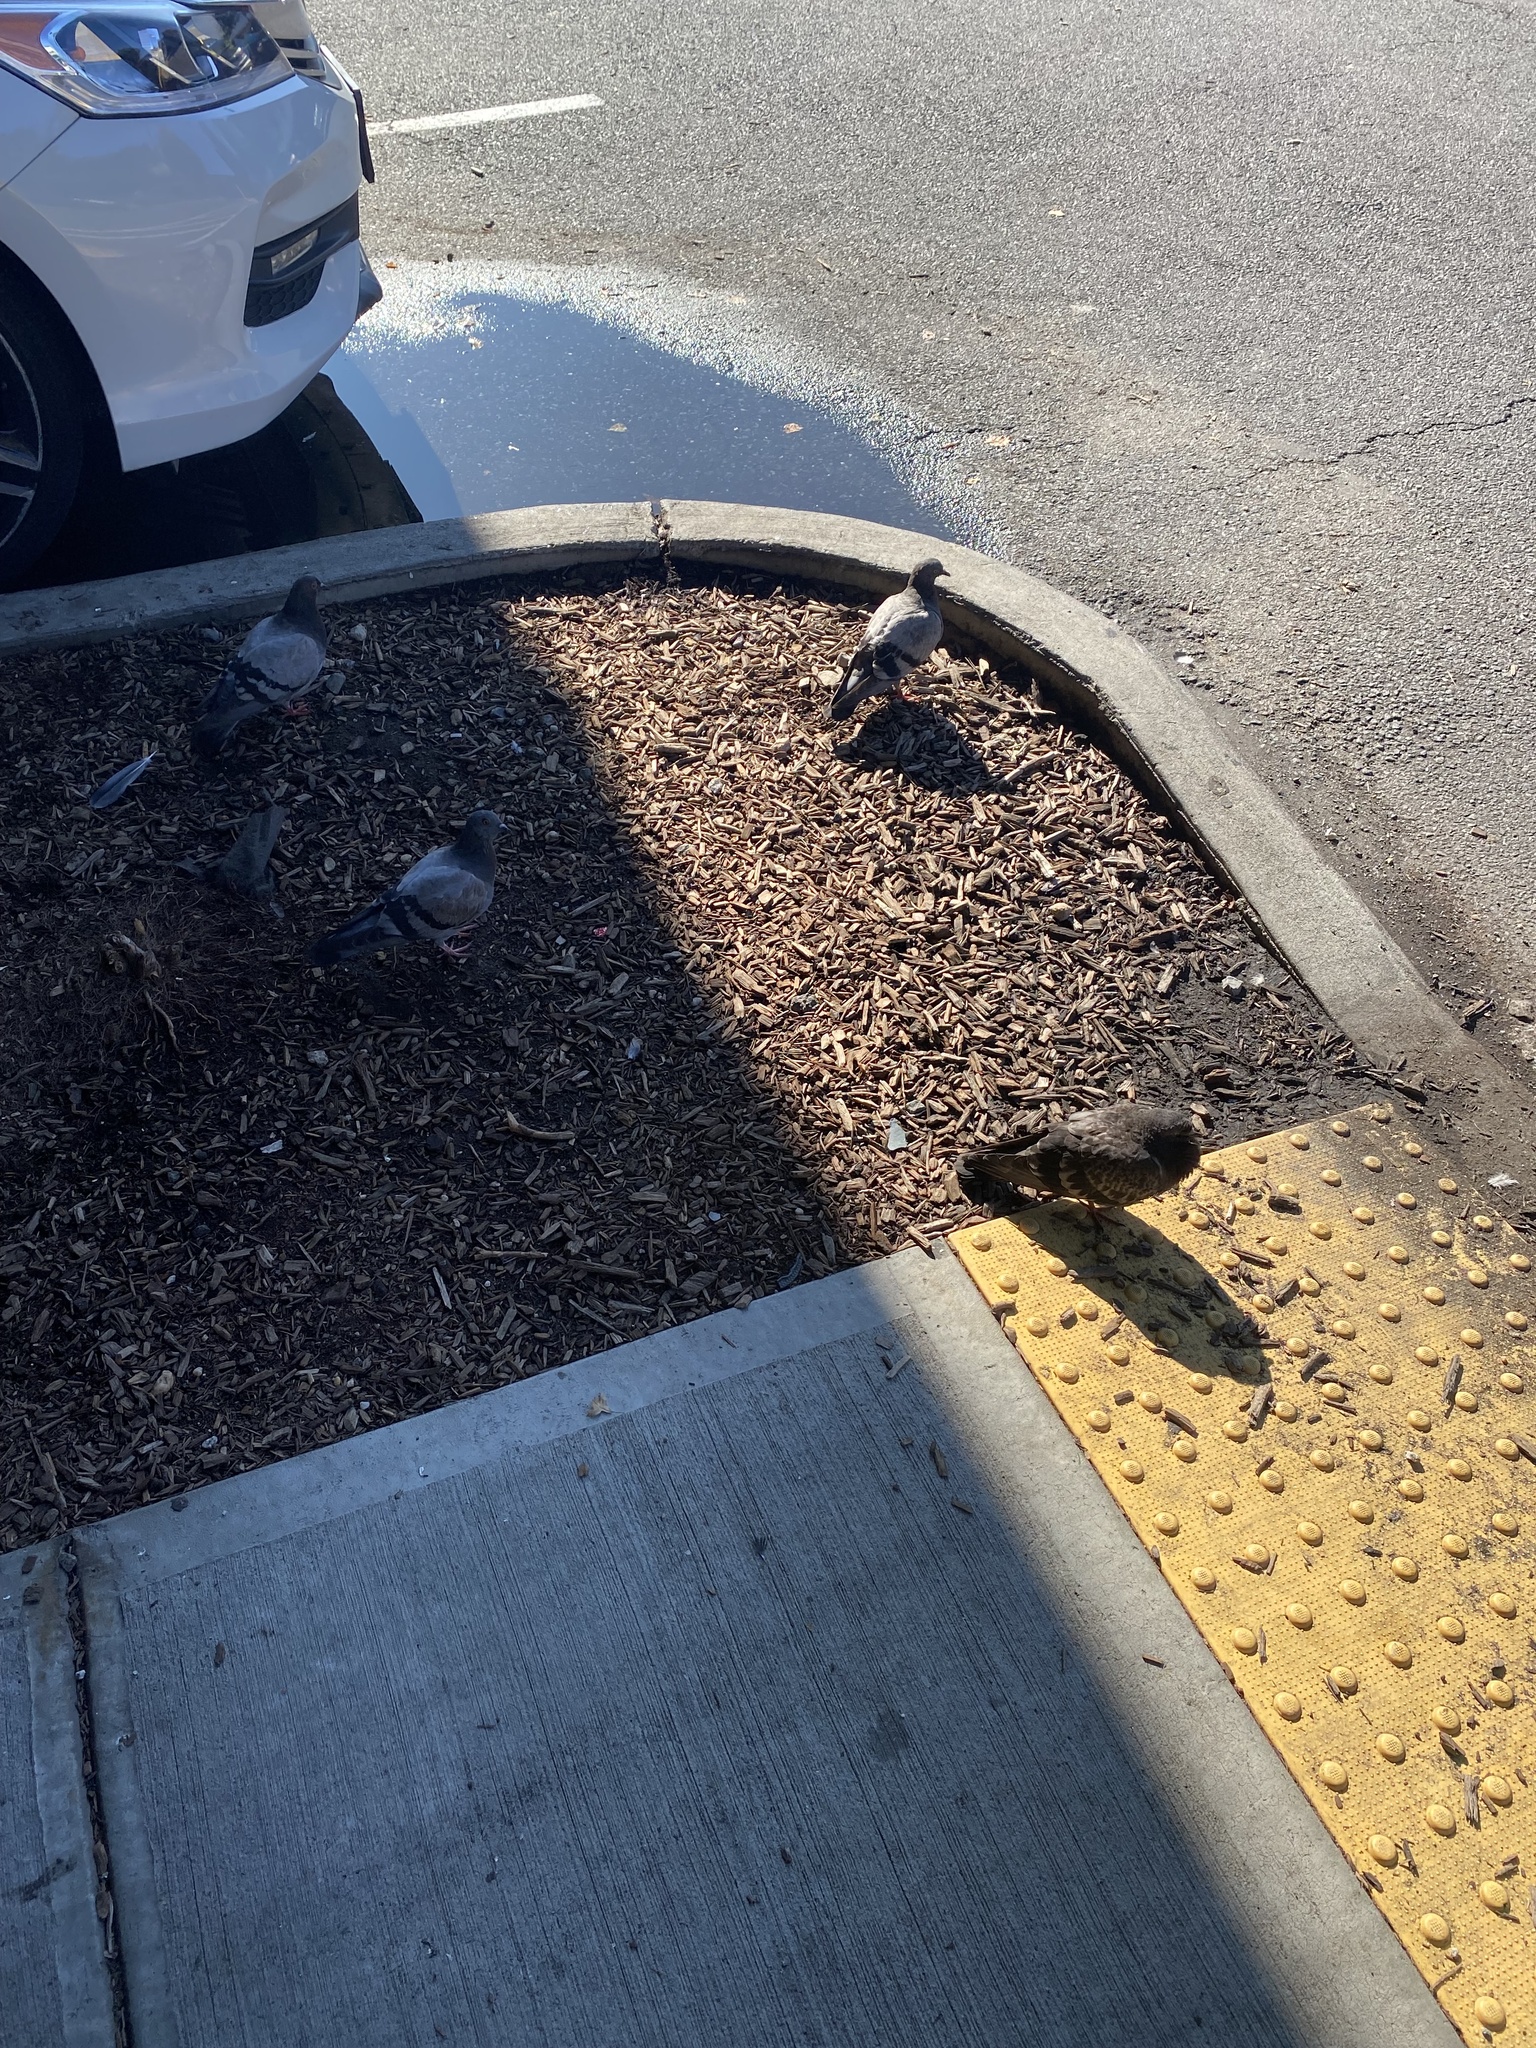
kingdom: Animalia
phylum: Chordata
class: Aves
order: Columbiformes
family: Columbidae
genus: Columba
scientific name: Columba livia
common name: Rock pigeon
